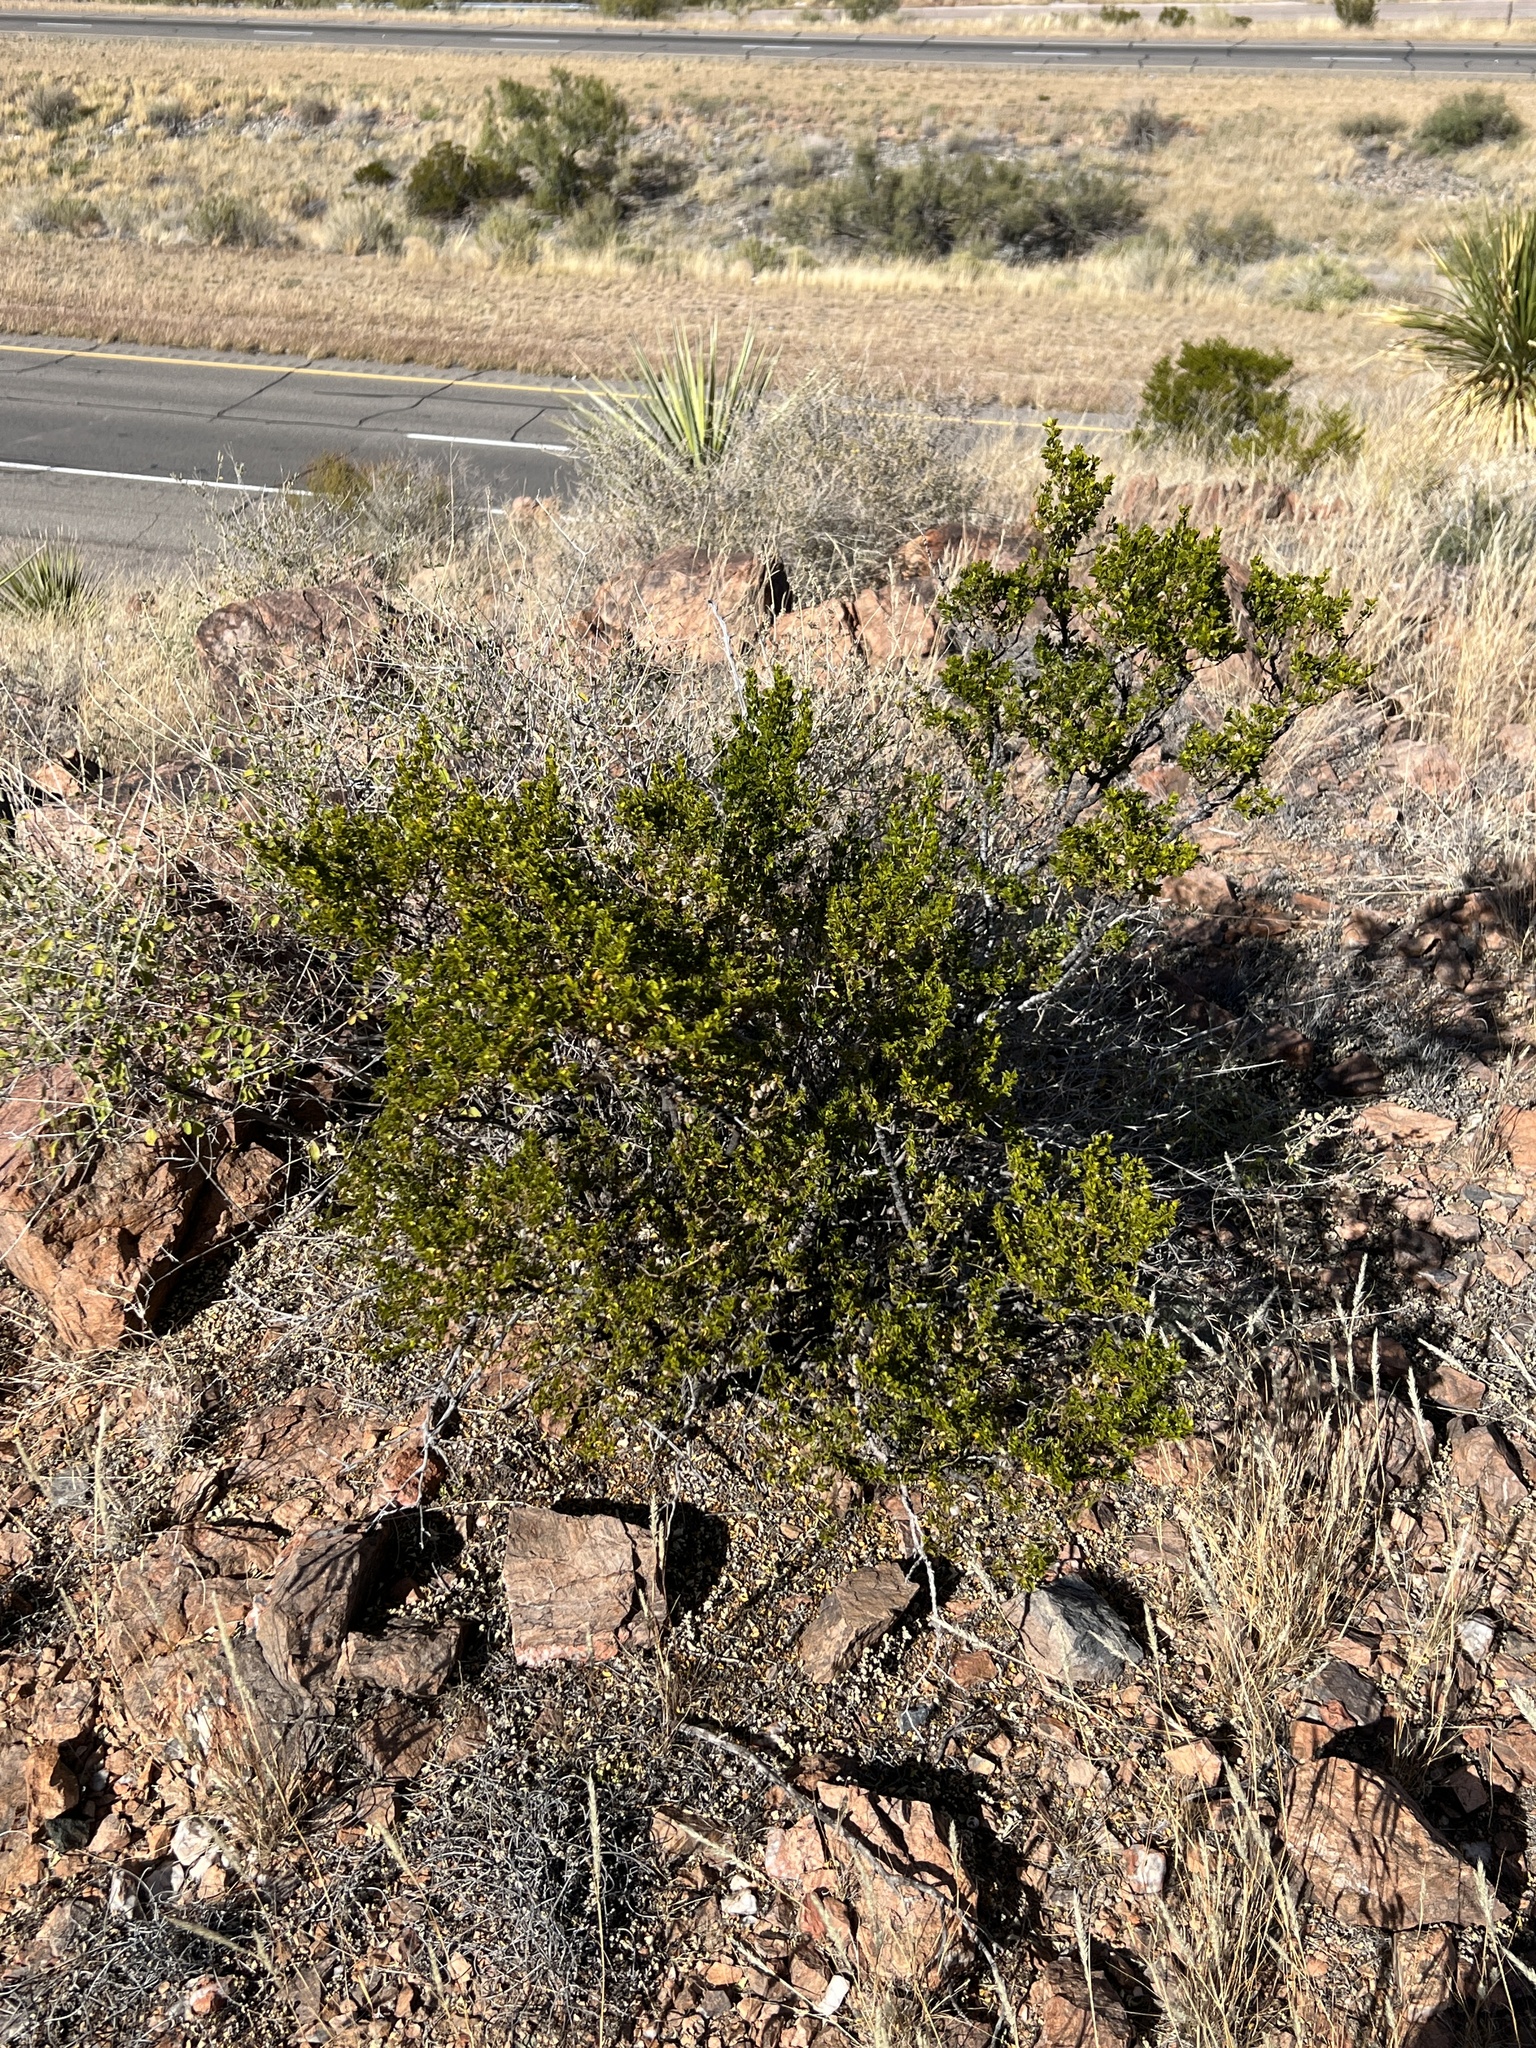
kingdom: Plantae
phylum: Tracheophyta
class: Magnoliopsida
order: Zygophyllales
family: Zygophyllaceae
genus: Larrea
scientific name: Larrea tridentata
